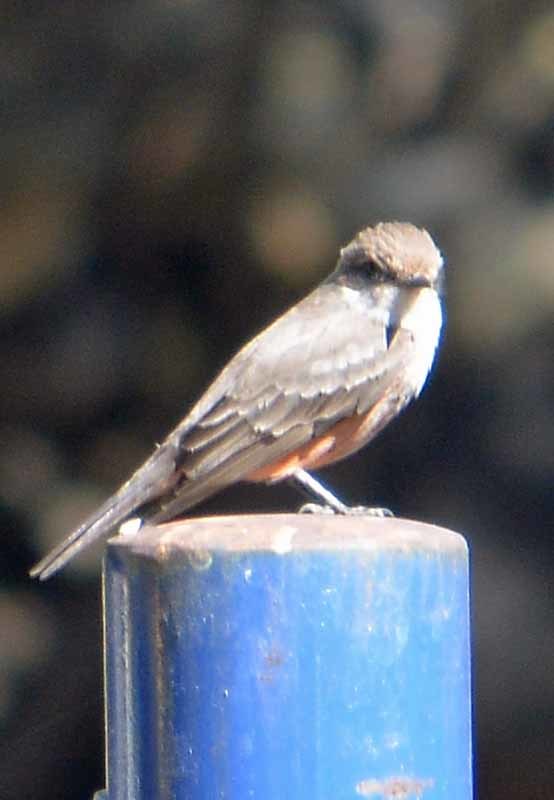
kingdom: Animalia
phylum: Chordata
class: Aves
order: Passeriformes
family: Tyrannidae
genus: Pyrocephalus
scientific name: Pyrocephalus rubinus
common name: Vermilion flycatcher
